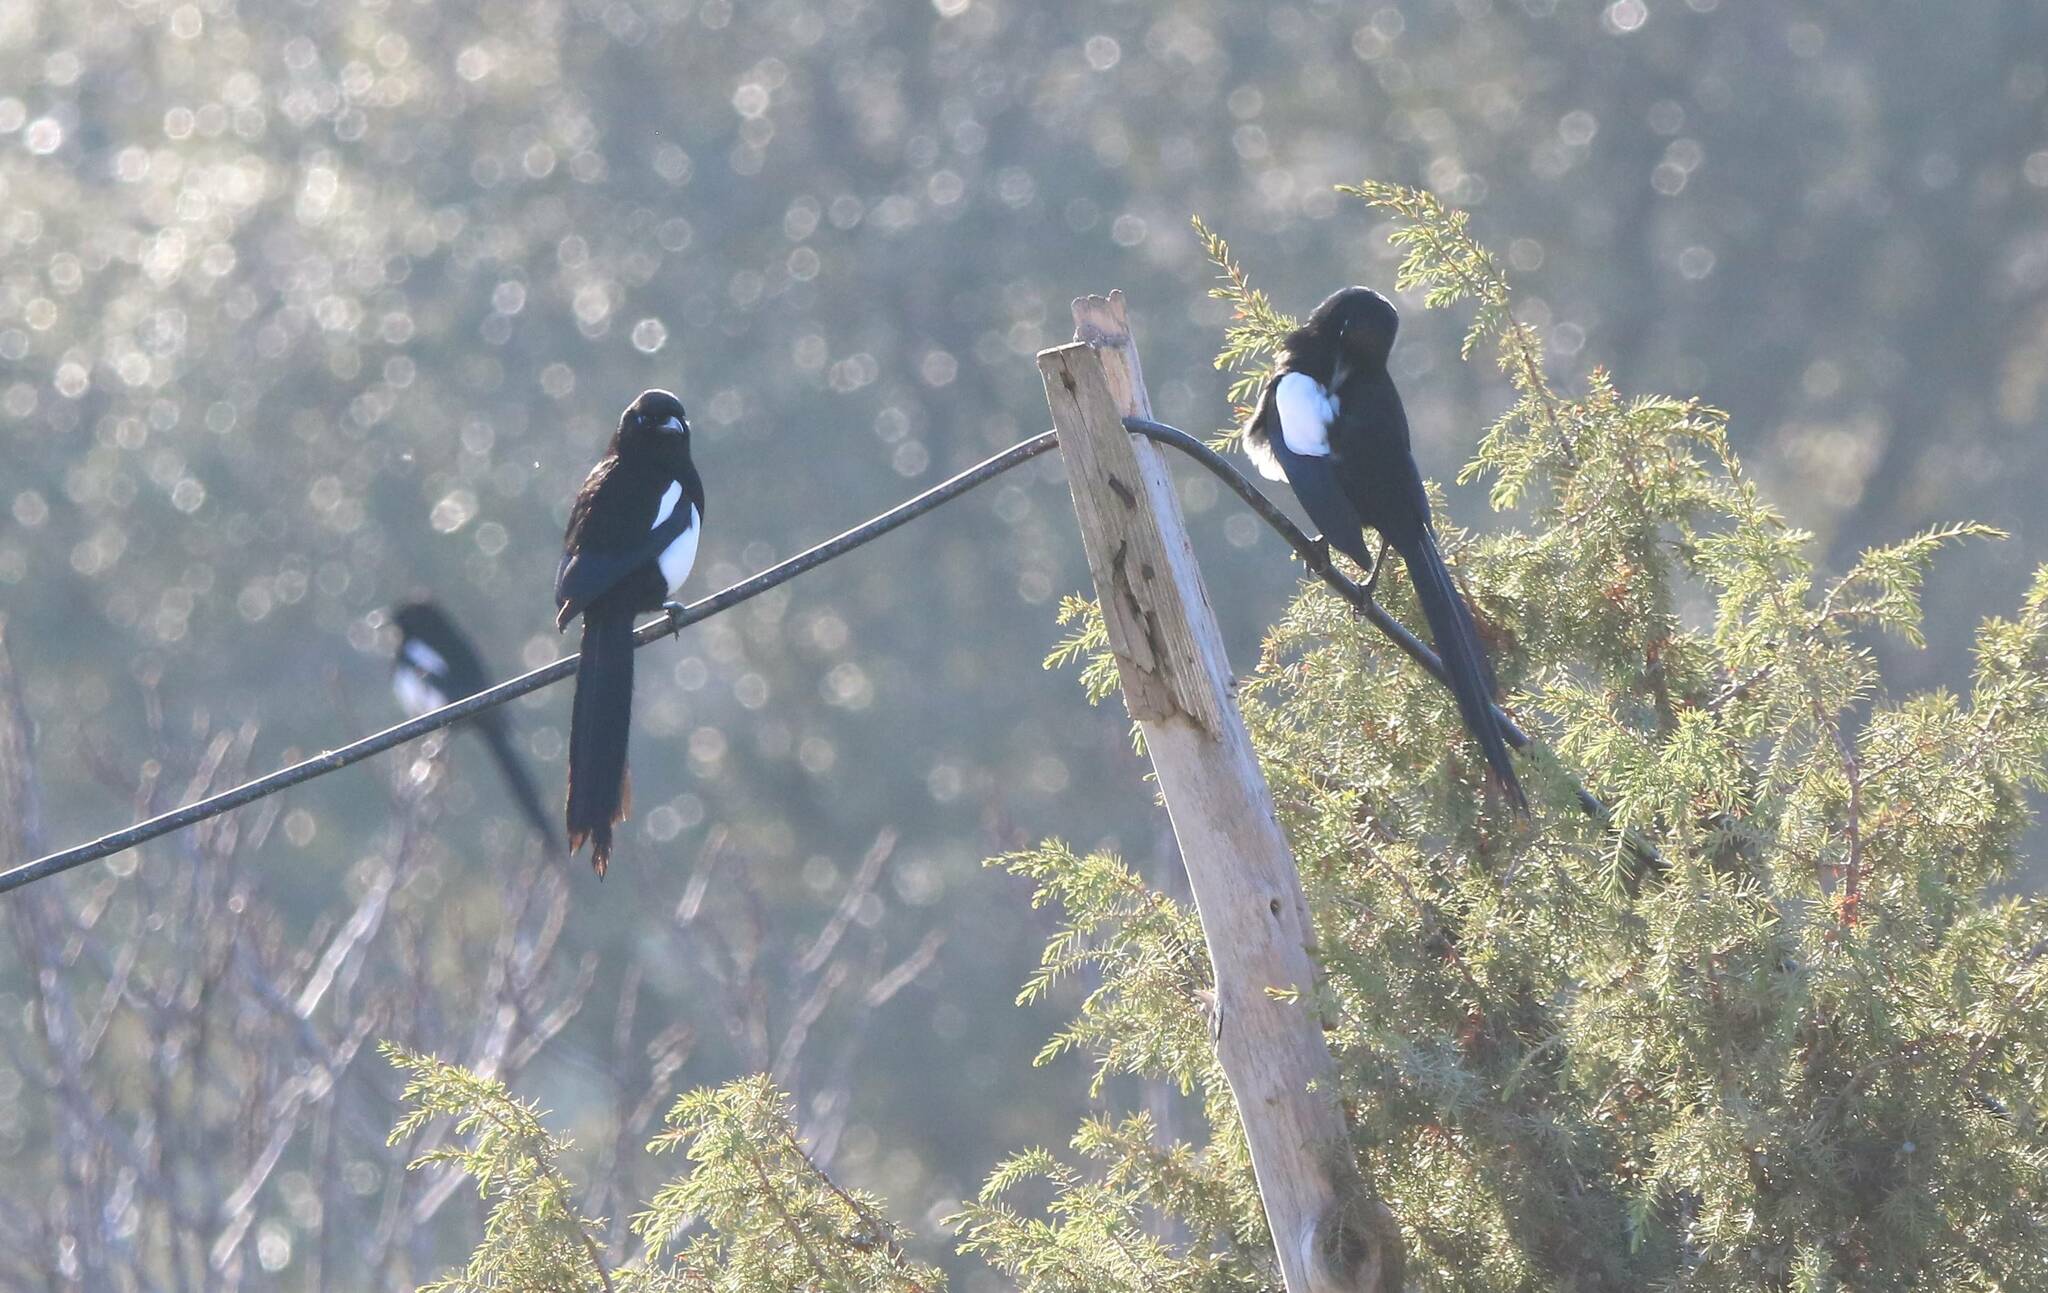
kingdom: Animalia
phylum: Chordata
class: Aves
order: Passeriformes
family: Corvidae
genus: Pica
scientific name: Pica mauritanica
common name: Maghreb magpie
